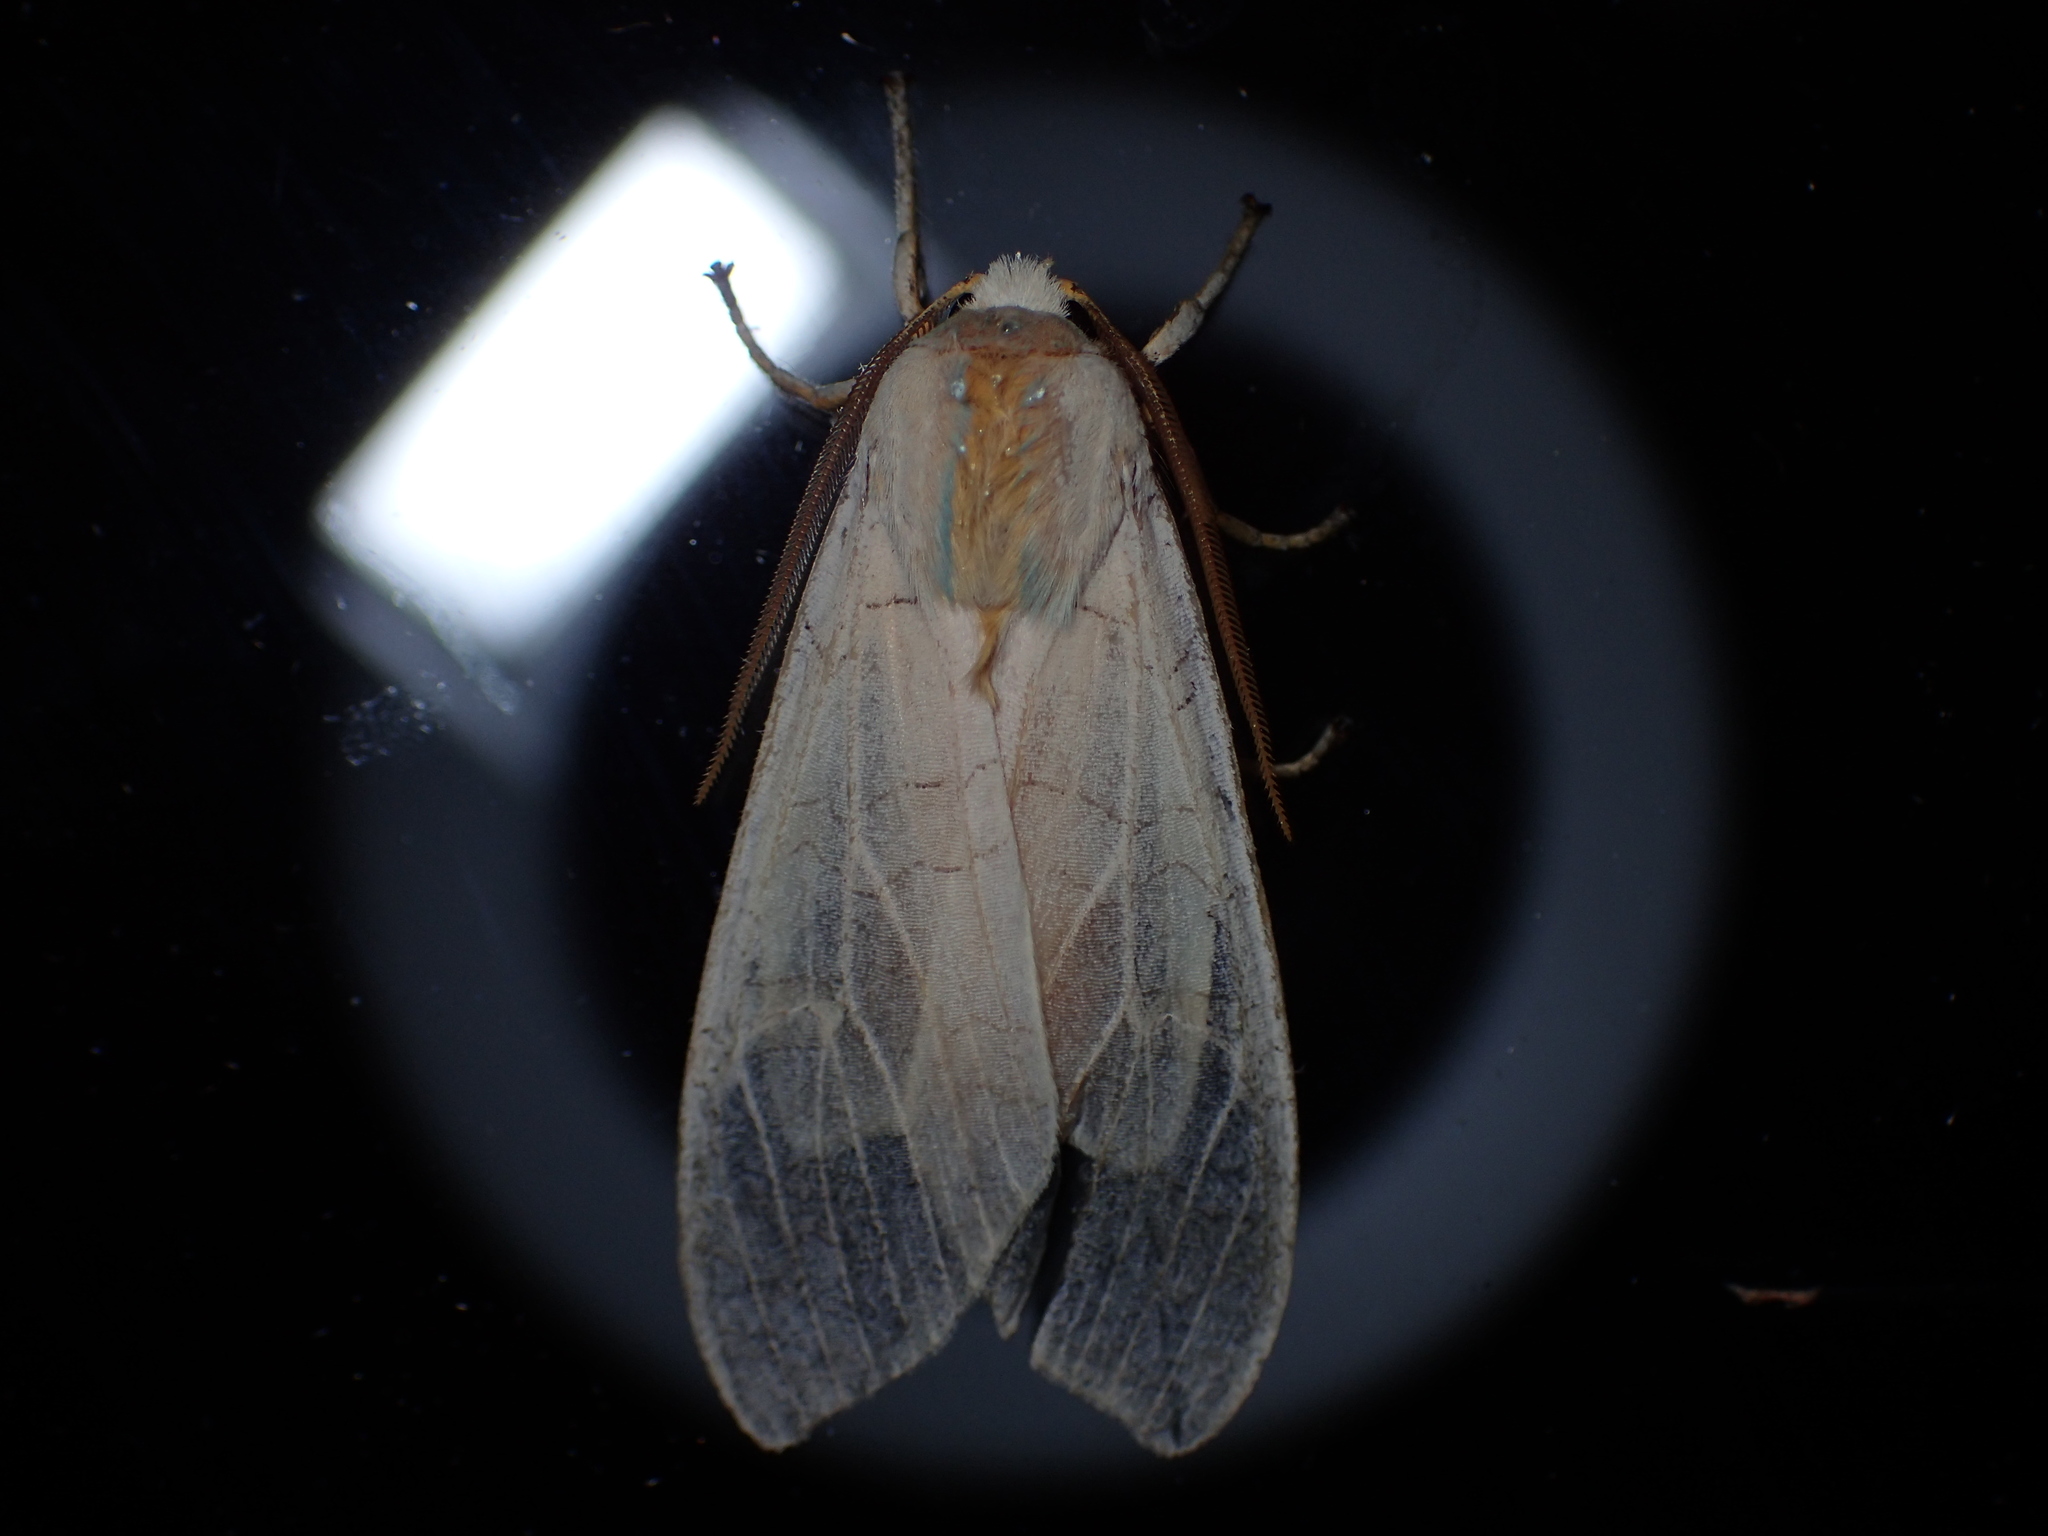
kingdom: Animalia
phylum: Arthropoda
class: Insecta
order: Lepidoptera
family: Erebidae
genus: Halysidota
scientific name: Halysidota
